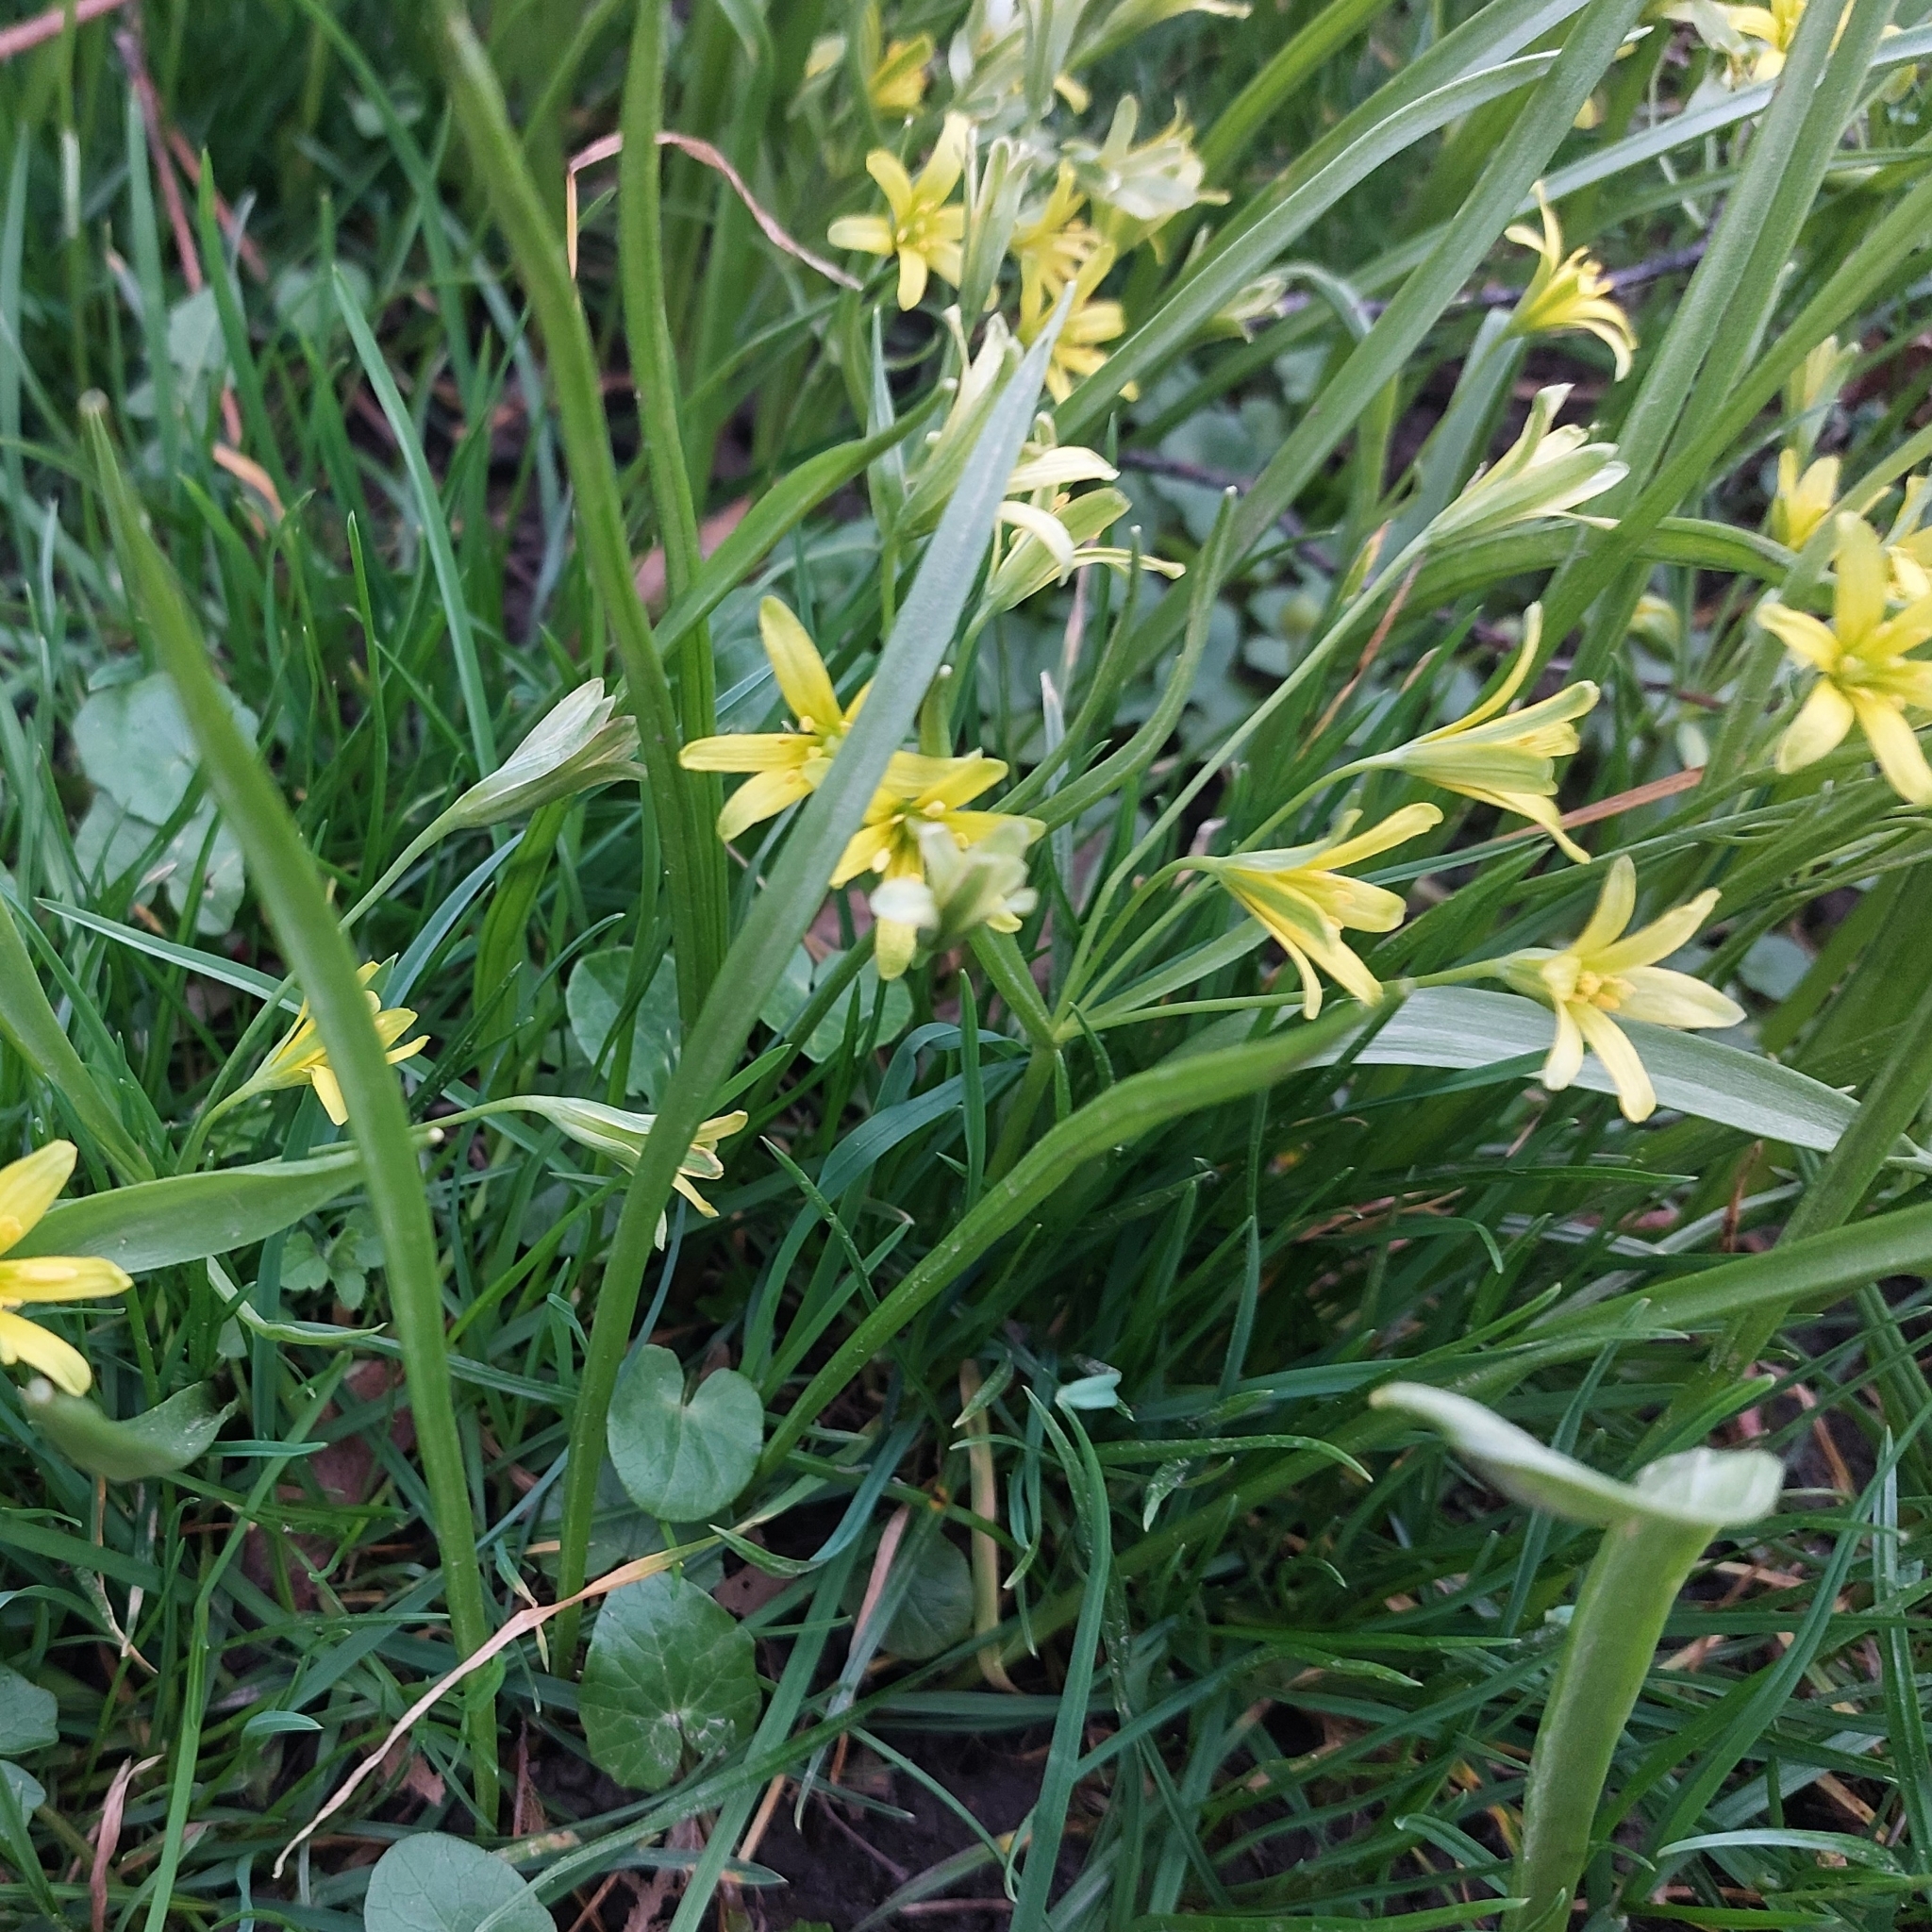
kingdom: Plantae
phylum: Tracheophyta
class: Liliopsida
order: Liliales
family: Liliaceae
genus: Gagea
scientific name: Gagea lutea
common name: Yellow star-of-bethlehem
